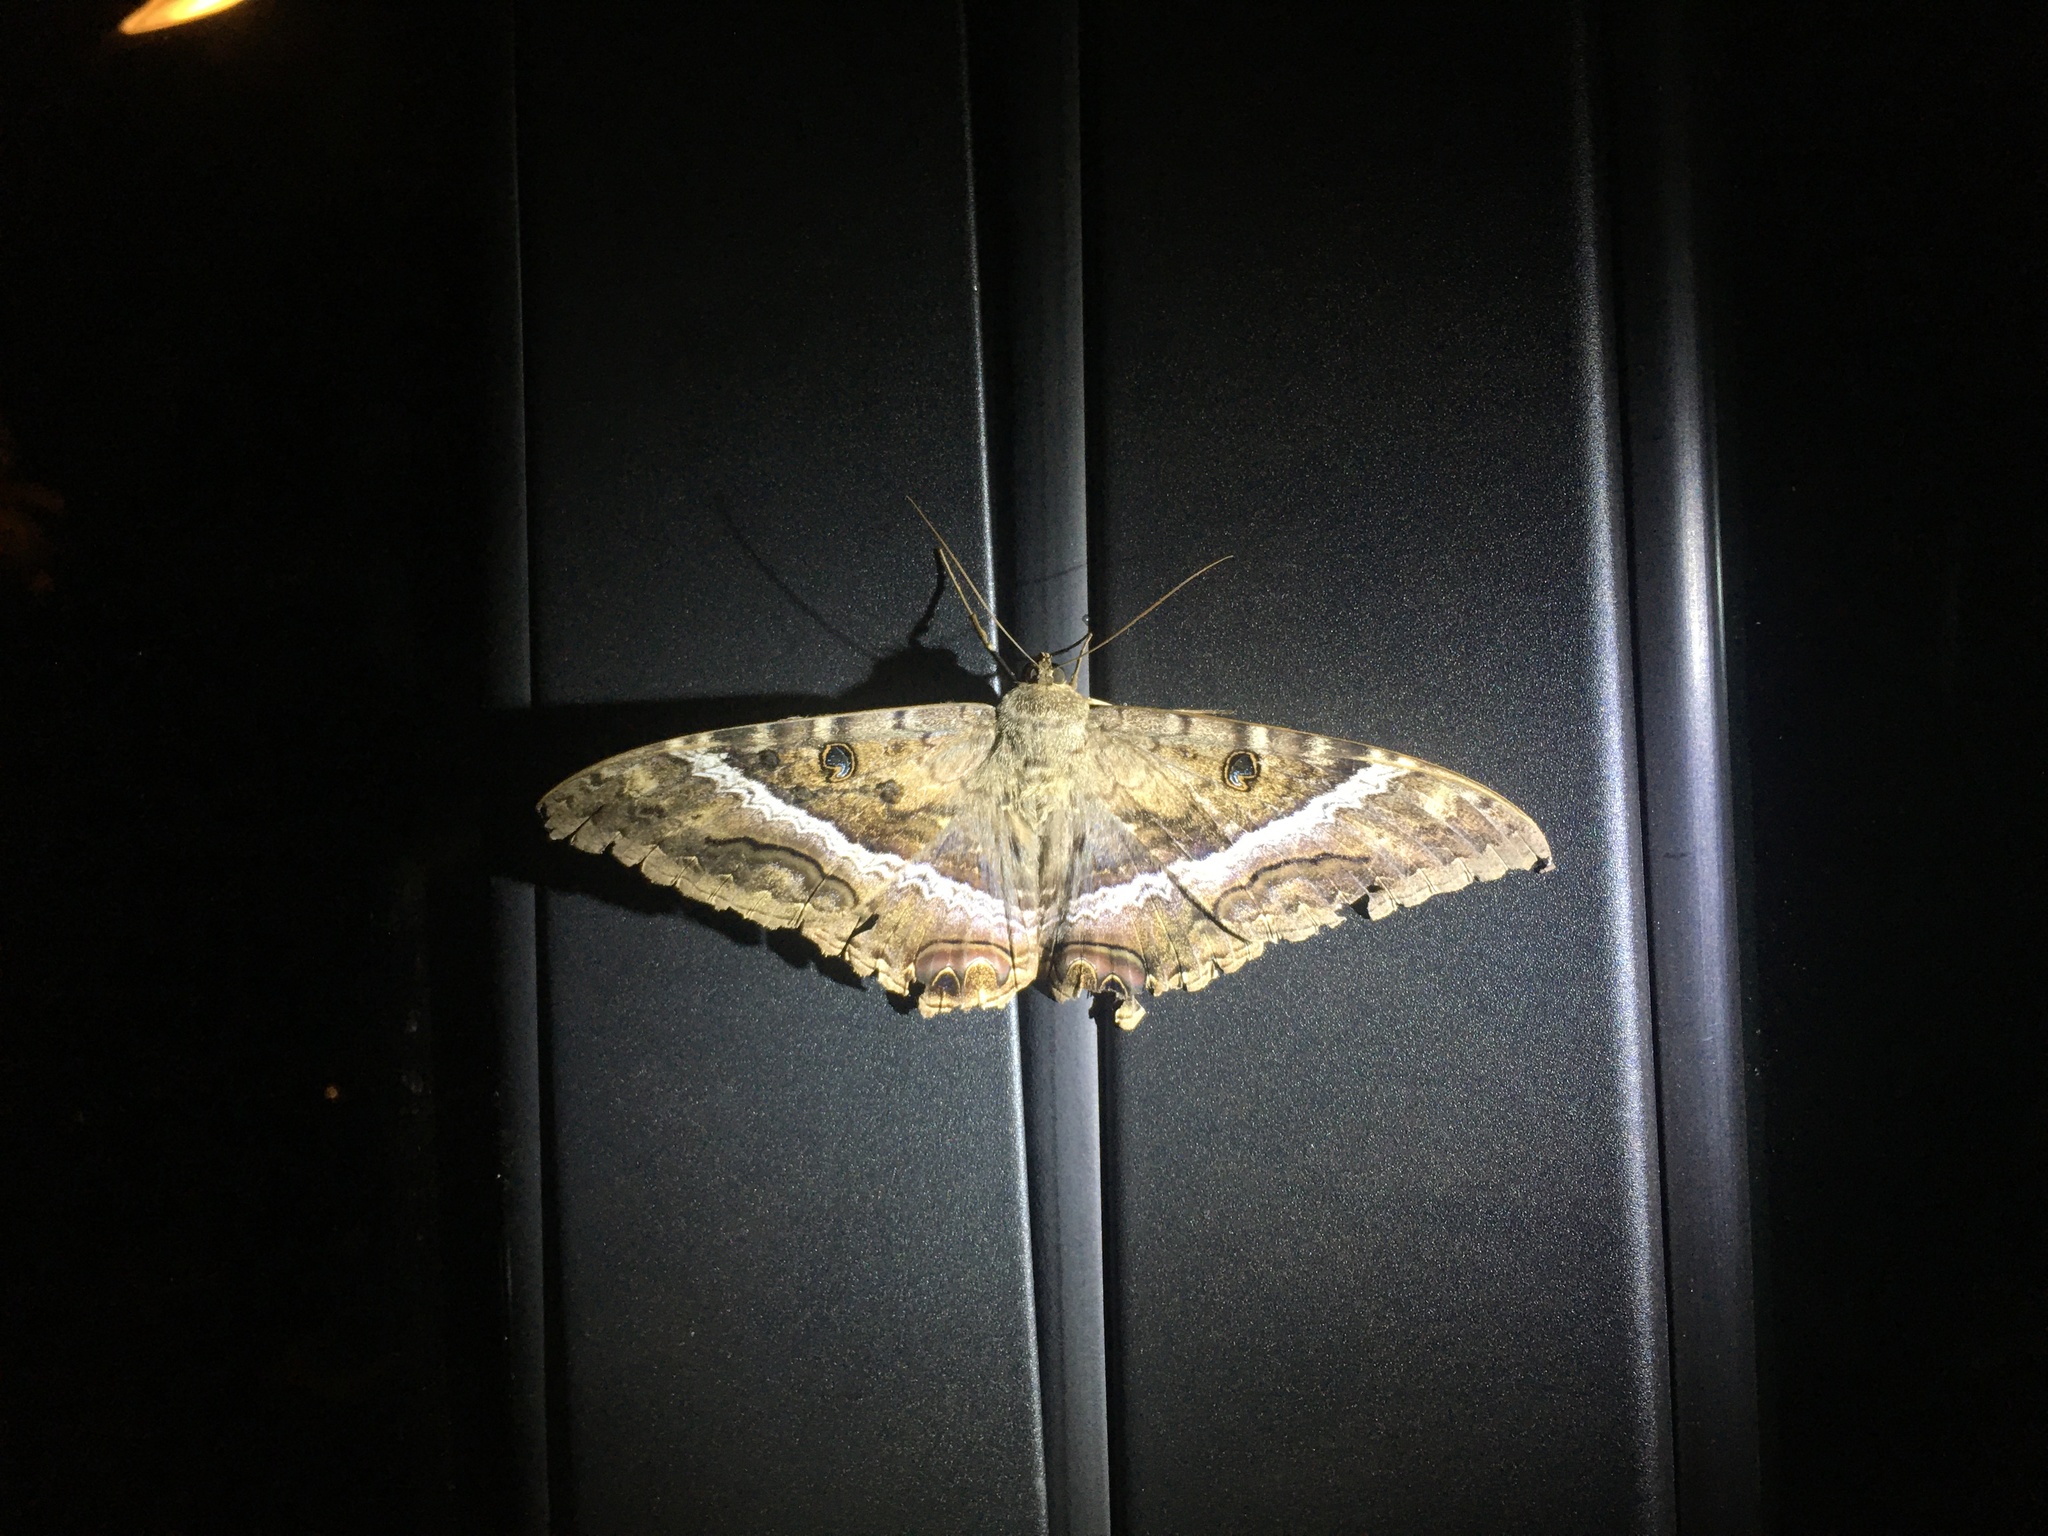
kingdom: Animalia
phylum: Arthropoda
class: Insecta
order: Lepidoptera
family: Erebidae
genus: Ascalapha
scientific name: Ascalapha odorata
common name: Black witch
